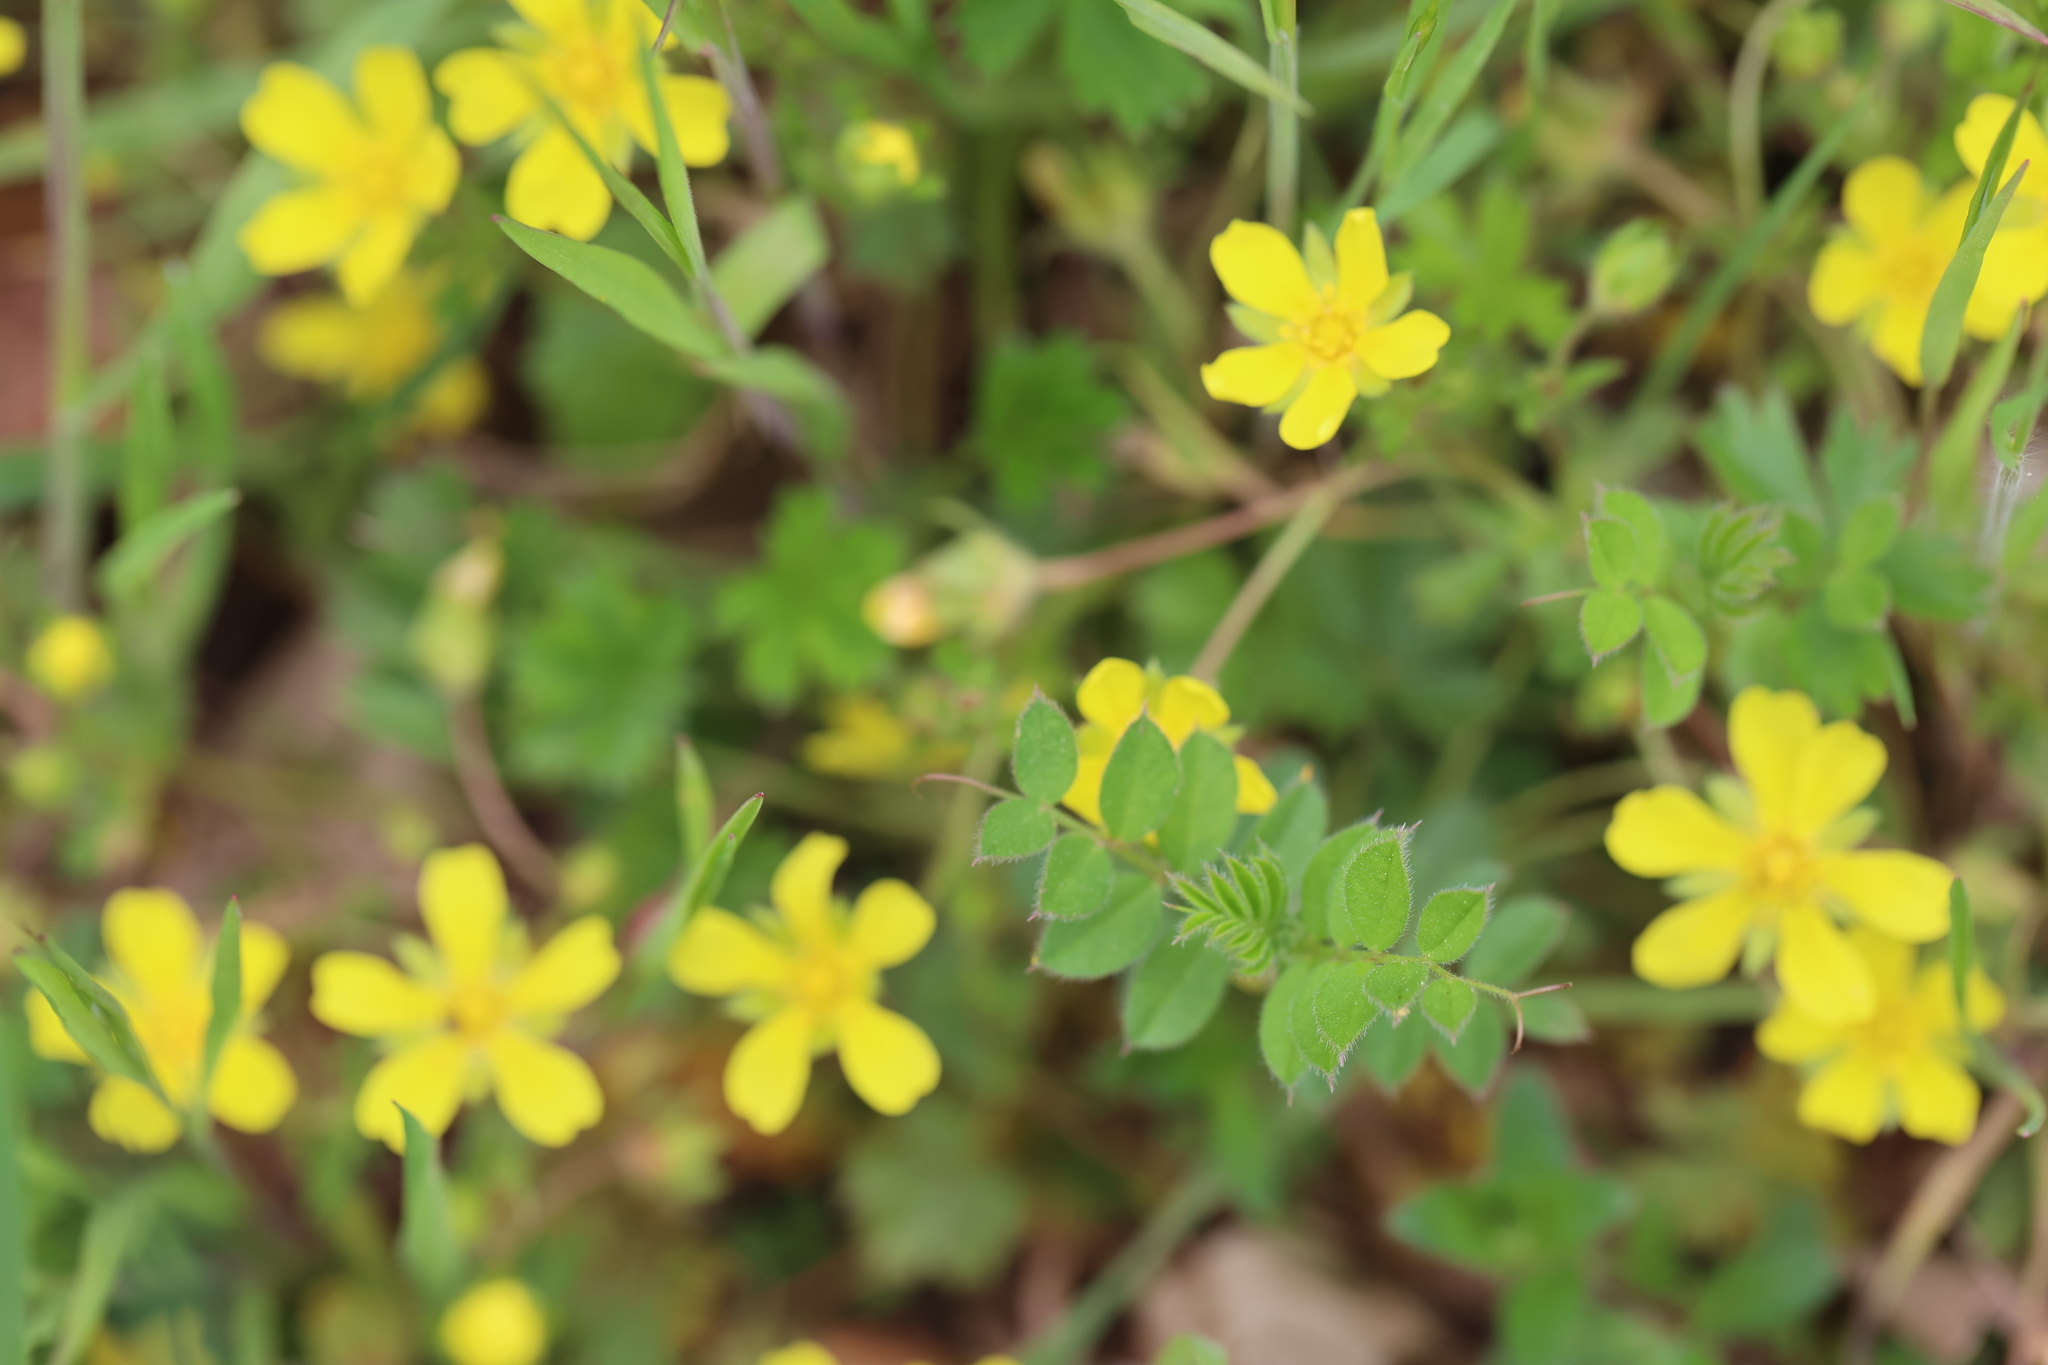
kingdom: Plantae
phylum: Tracheophyta
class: Magnoliopsida
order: Rosales
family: Rosaceae
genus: Potentilla
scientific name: Potentilla verna
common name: Spring cinquefoil
